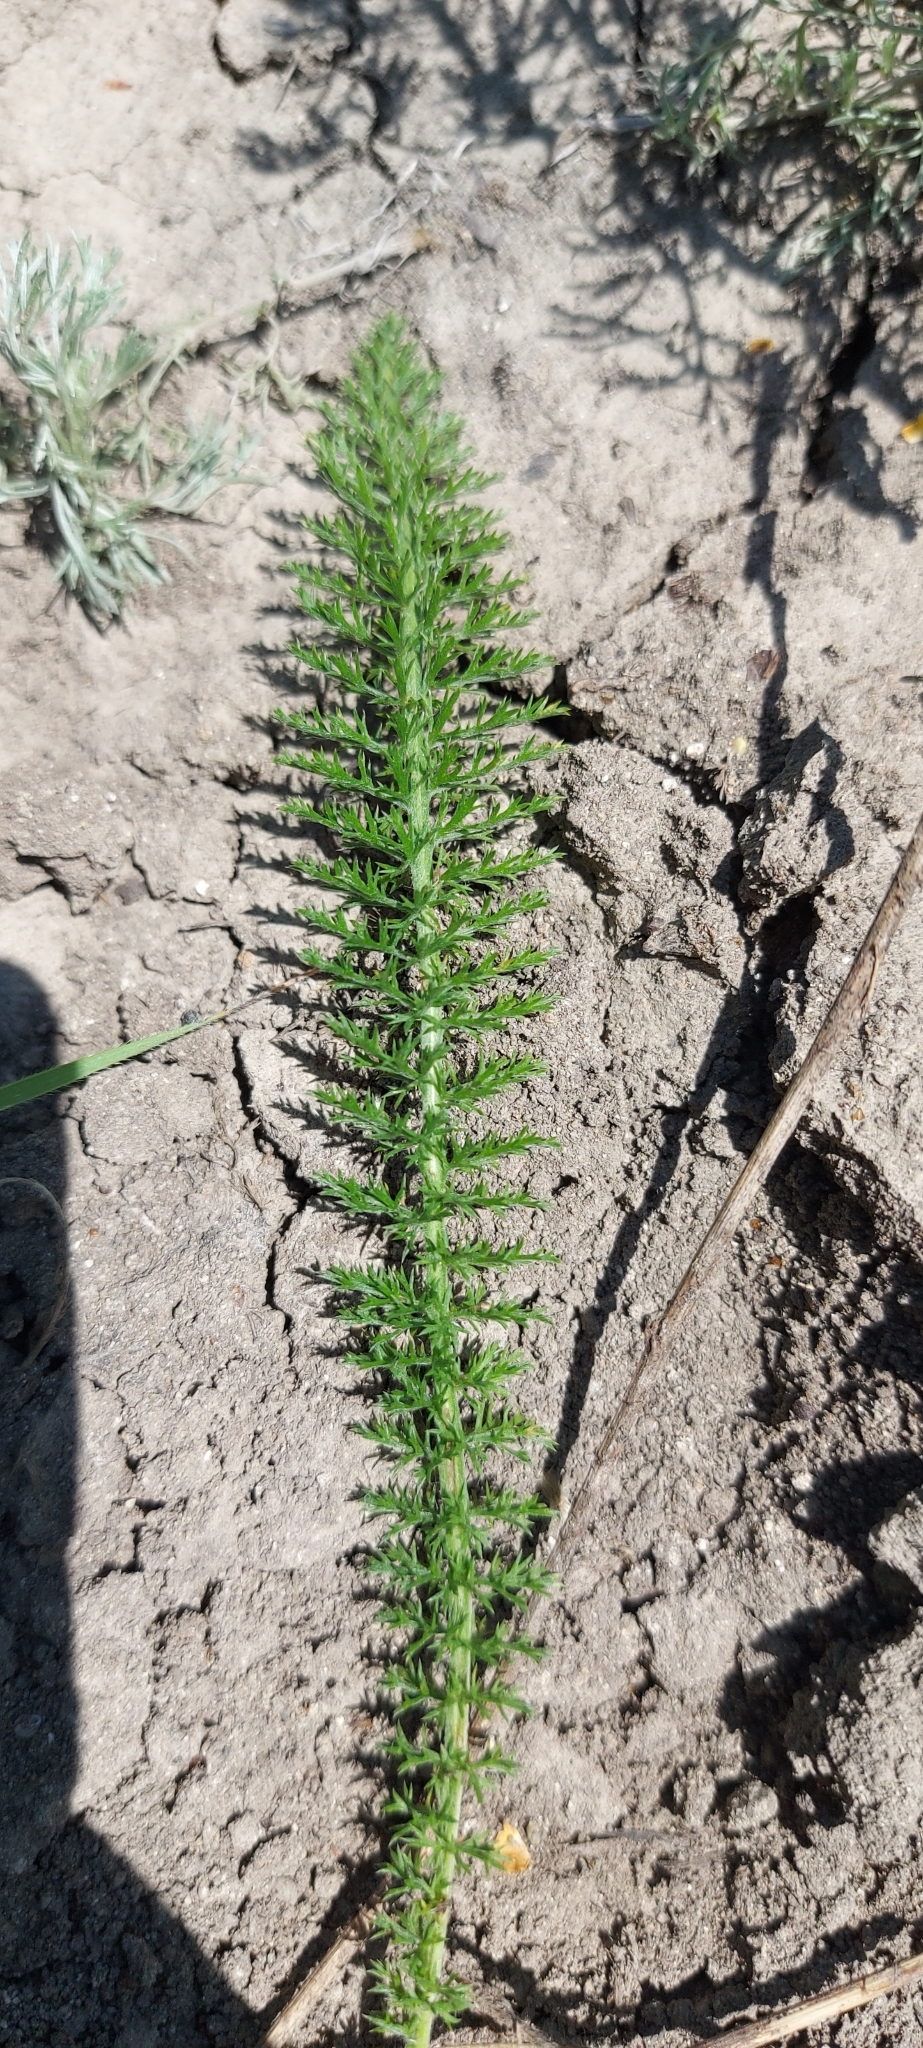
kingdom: Plantae
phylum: Tracheophyta
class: Magnoliopsida
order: Asterales
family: Asteraceae
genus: Achillea
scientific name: Achillea millefolium
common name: Yarrow
